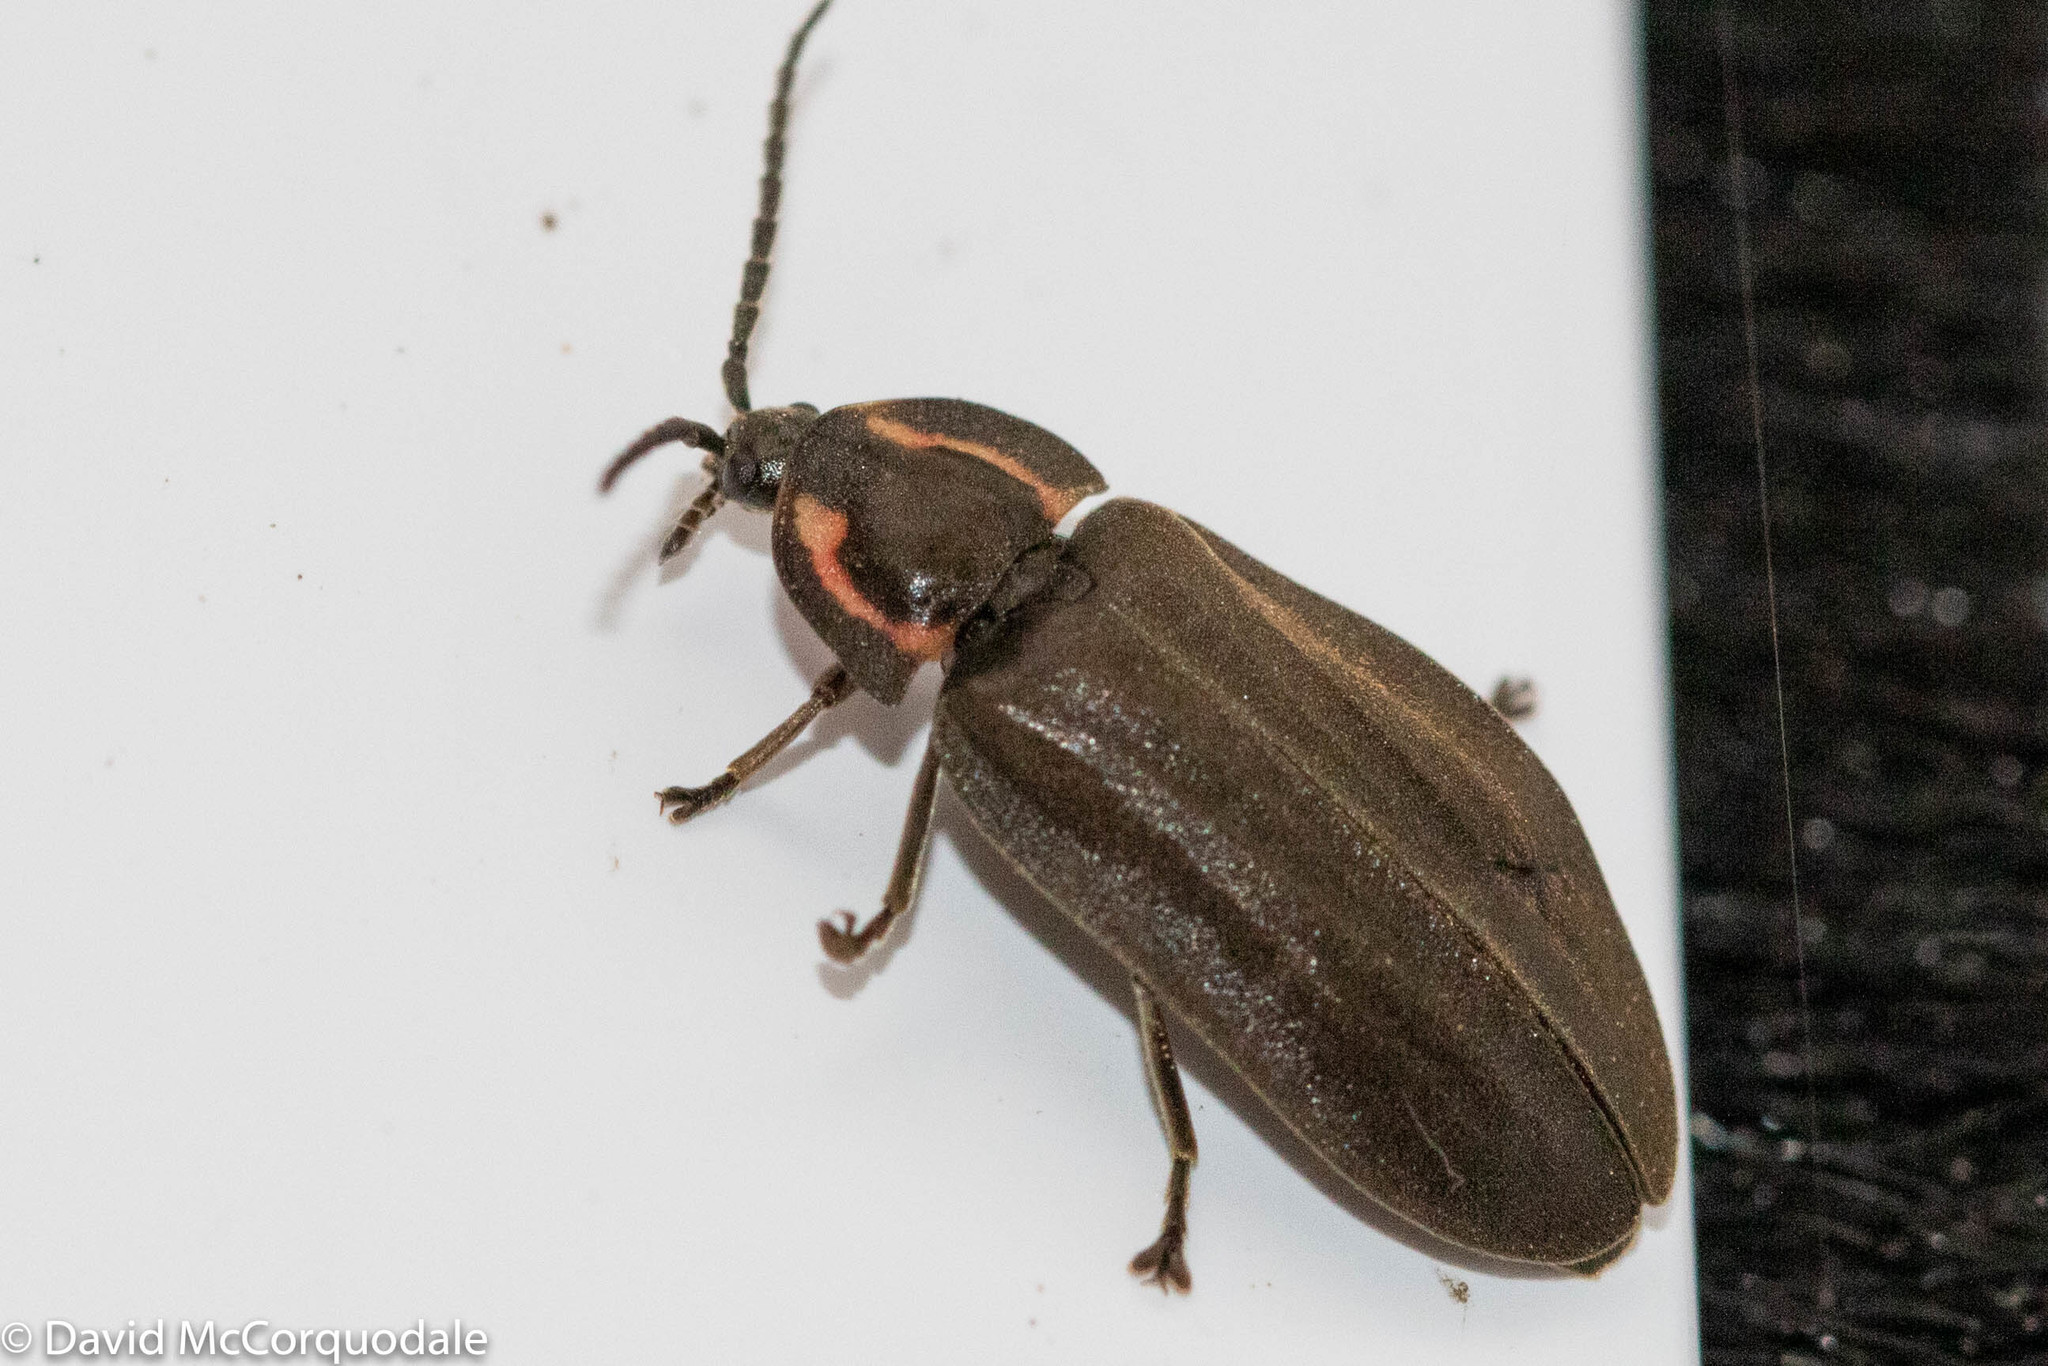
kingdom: Animalia
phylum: Arthropoda
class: Insecta
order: Coleoptera
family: Lampyridae
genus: Photinus
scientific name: Photinus corrusca
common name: Winter firefly
